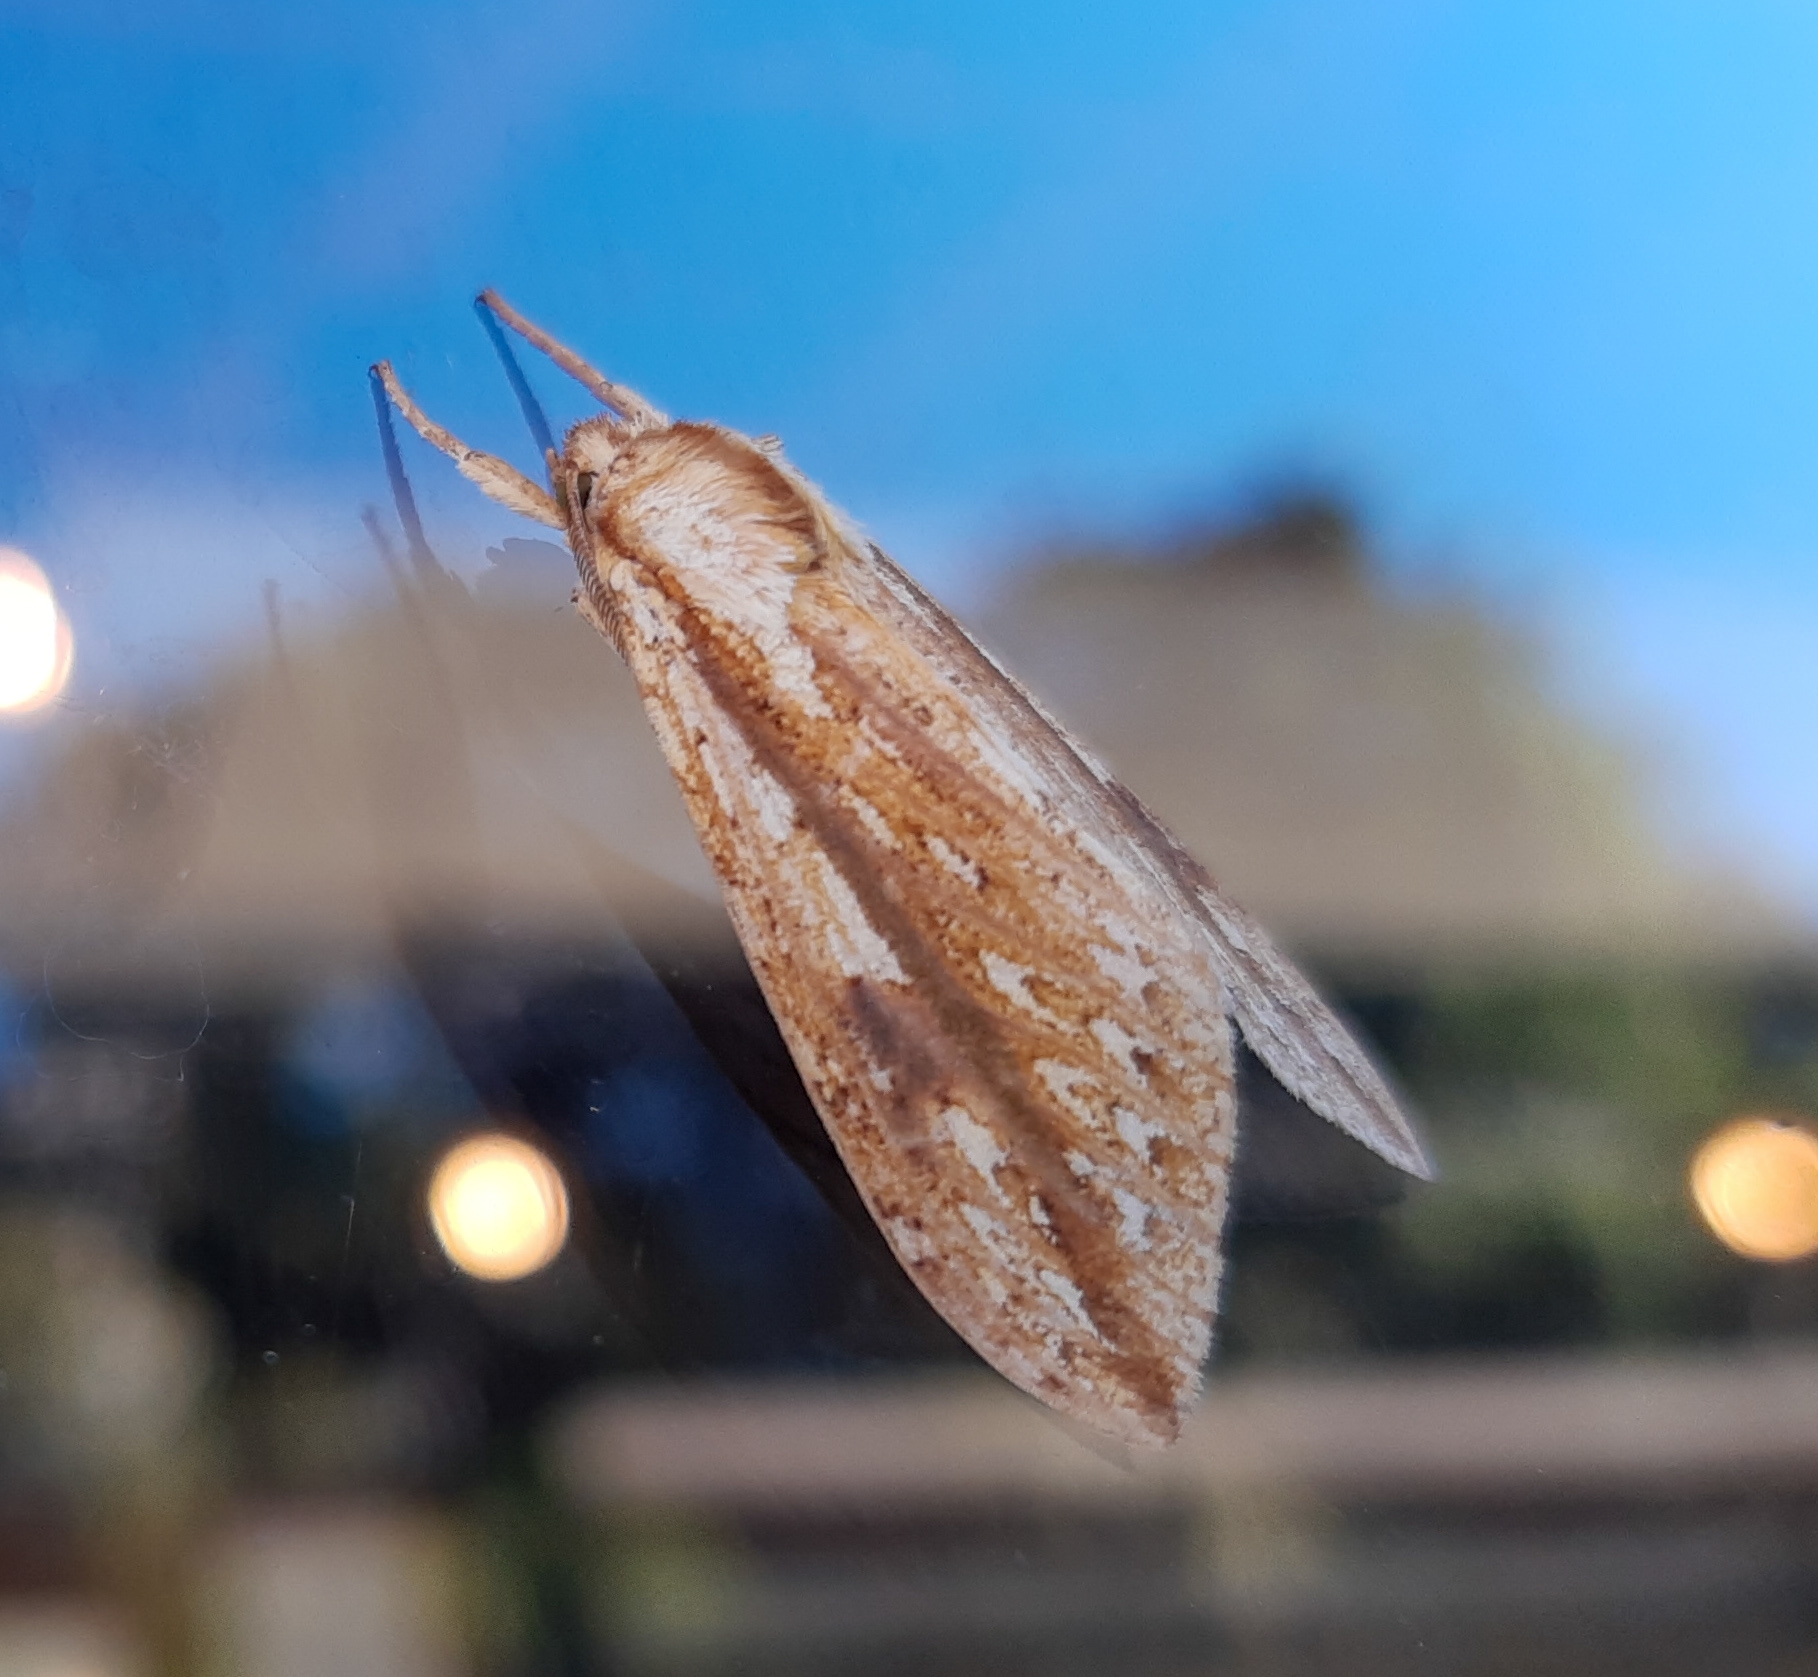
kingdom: Animalia
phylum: Arthropoda
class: Insecta
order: Lepidoptera
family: Erebidae
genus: Leucanopsis
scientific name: Leucanopsis oruba
